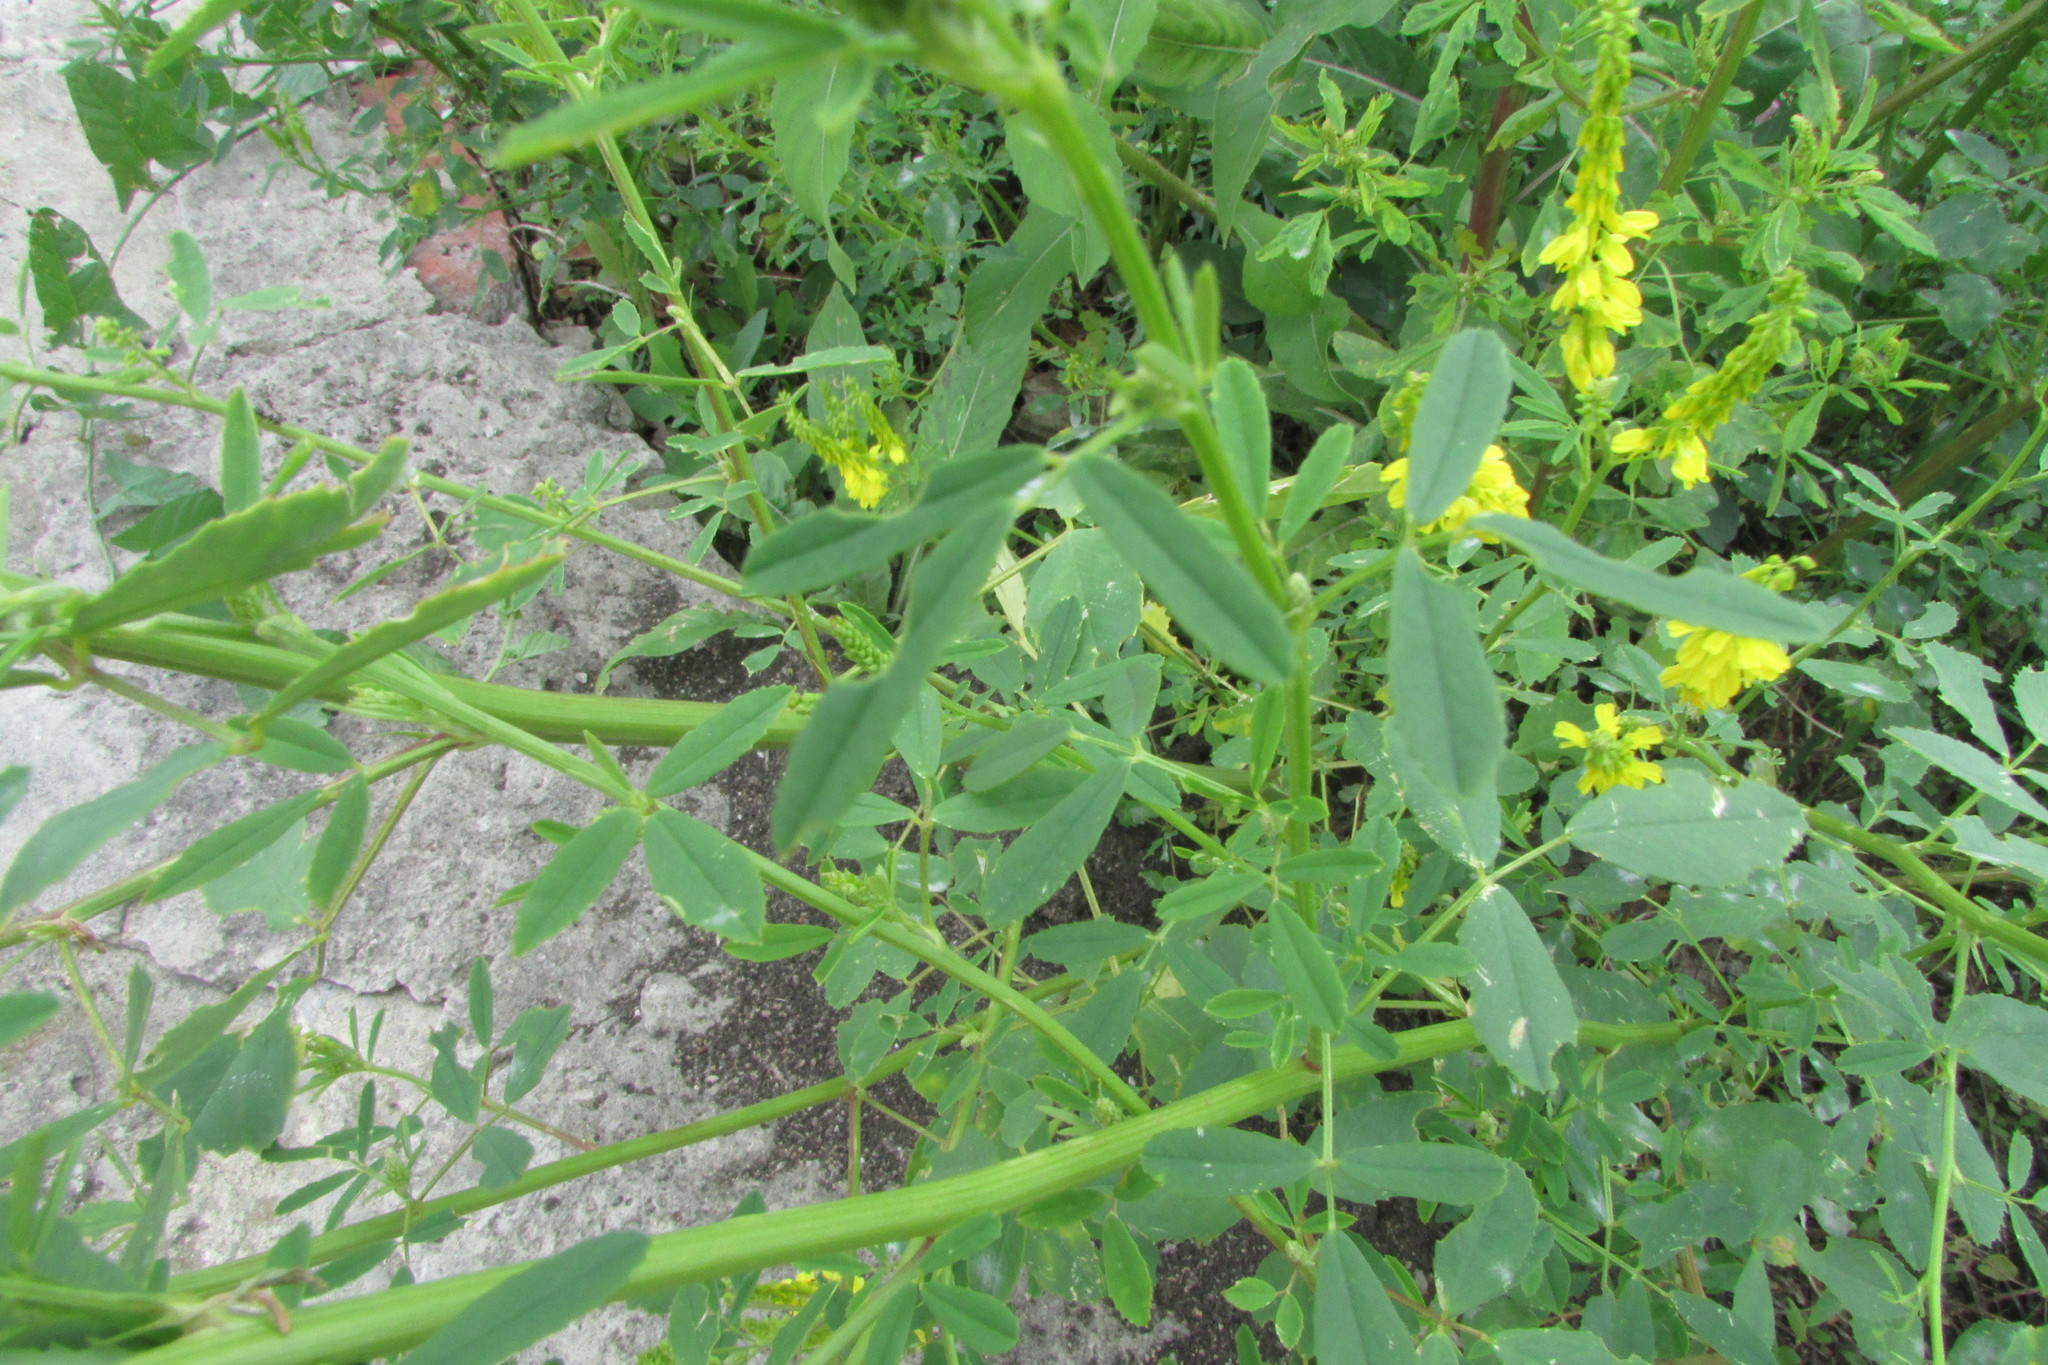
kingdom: Plantae
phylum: Tracheophyta
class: Magnoliopsida
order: Fabales
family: Fabaceae
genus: Melilotus
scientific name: Melilotus officinalis
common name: Sweetclover
